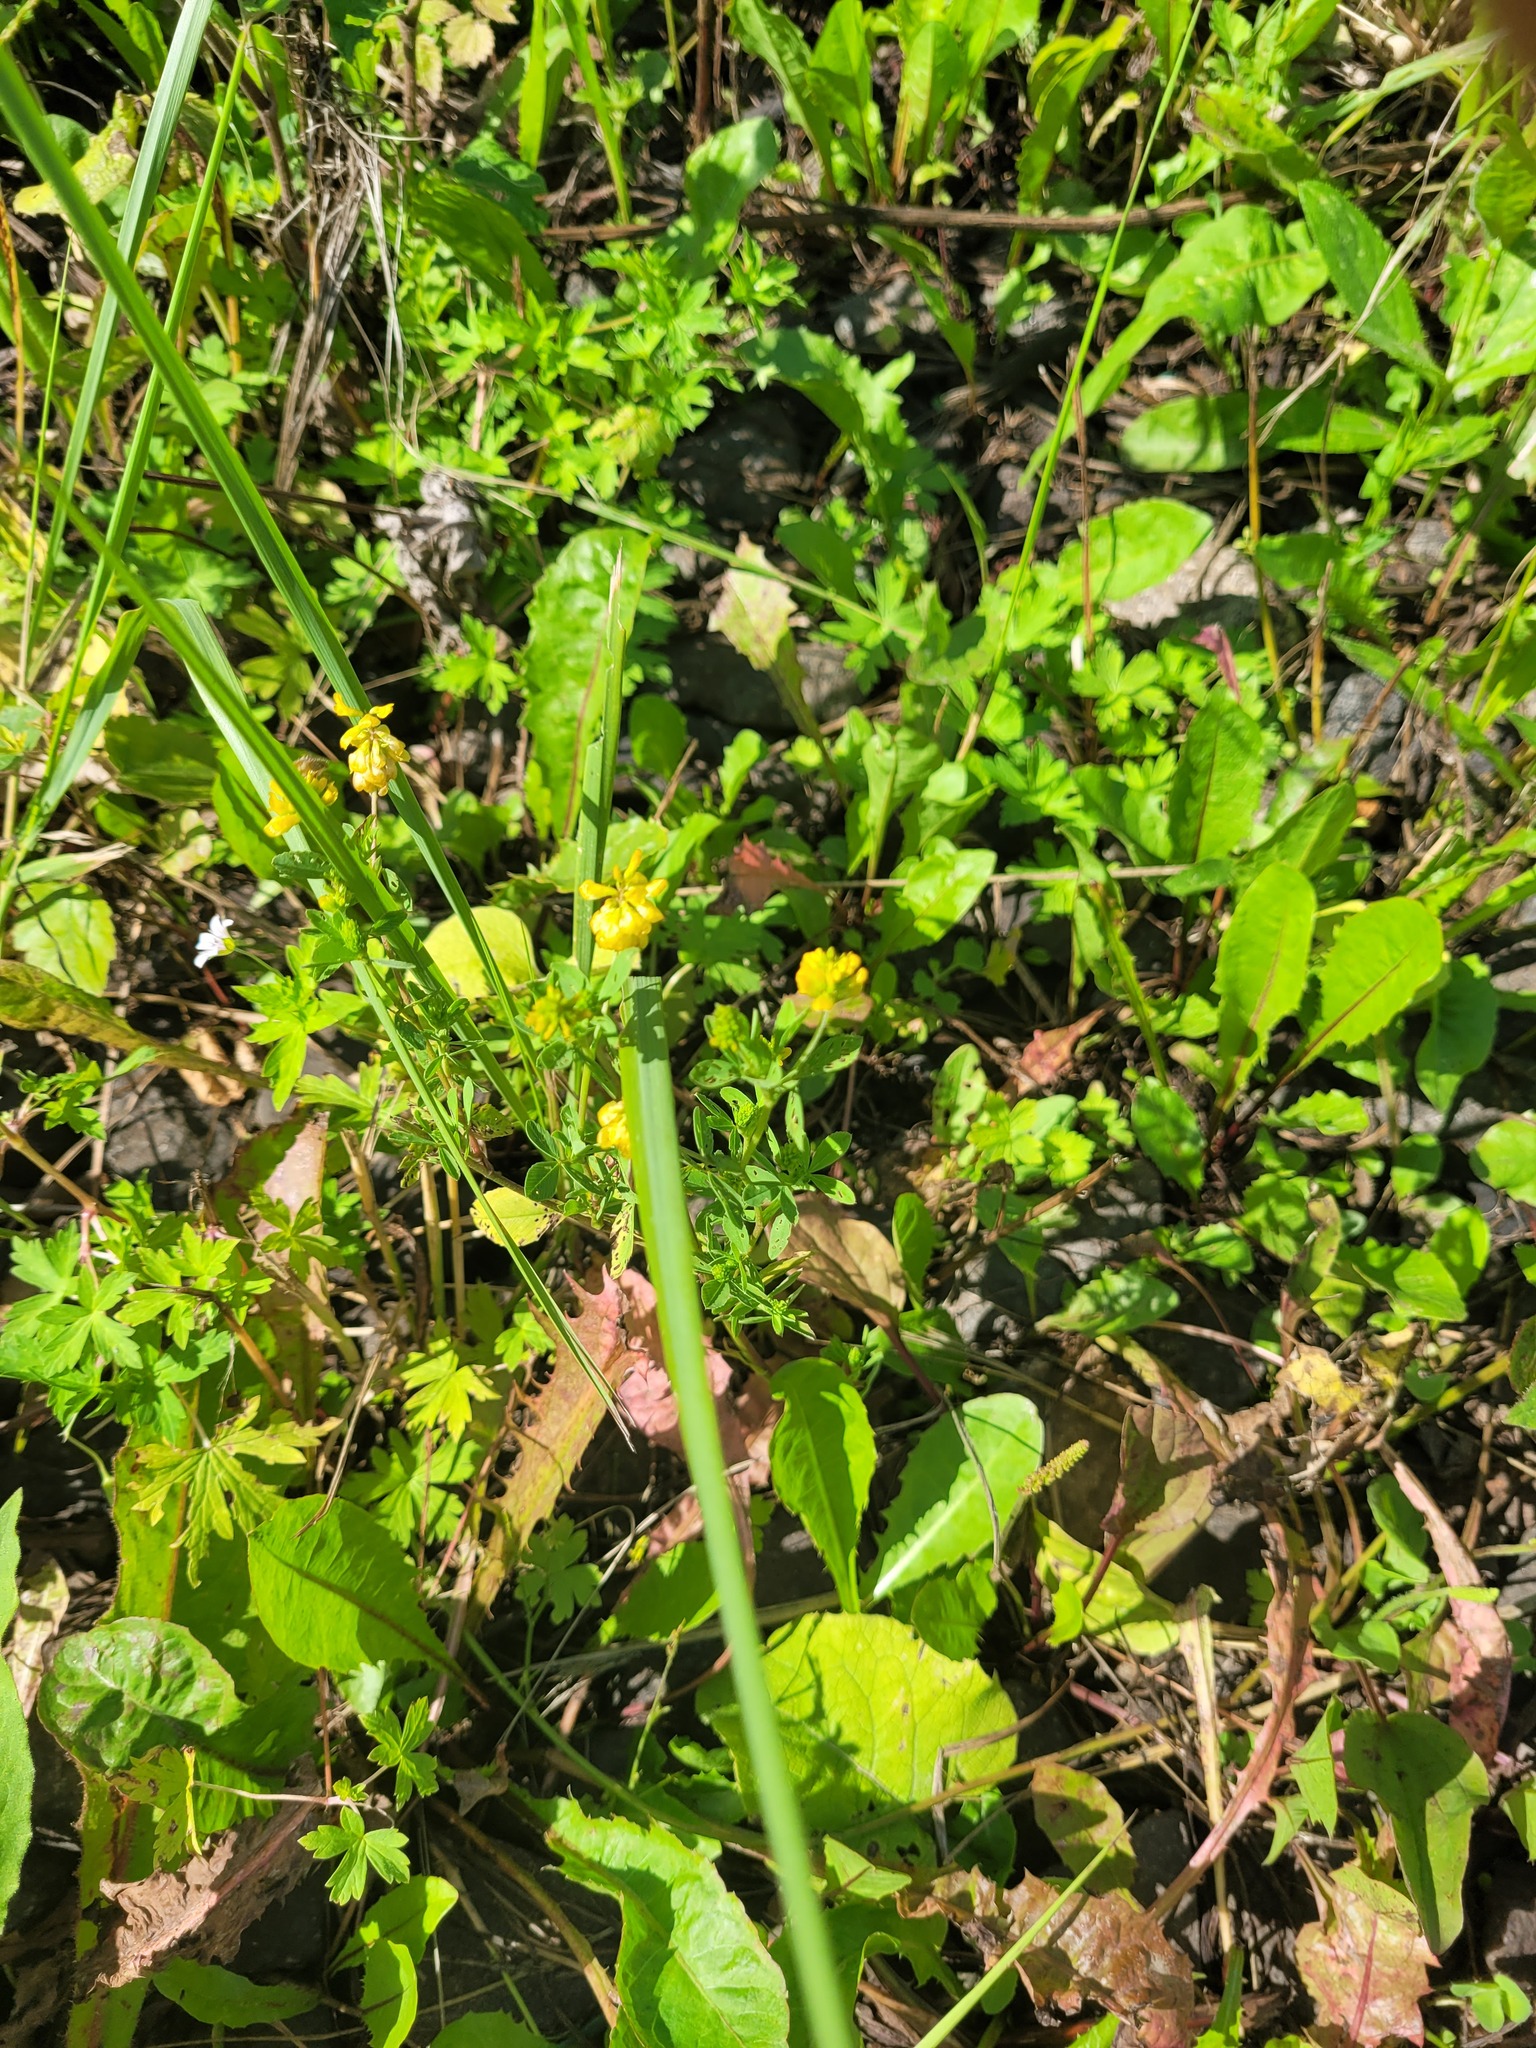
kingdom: Plantae
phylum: Tracheophyta
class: Magnoliopsida
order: Fabales
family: Fabaceae
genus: Trifolium
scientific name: Trifolium aureum
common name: Golden clover
